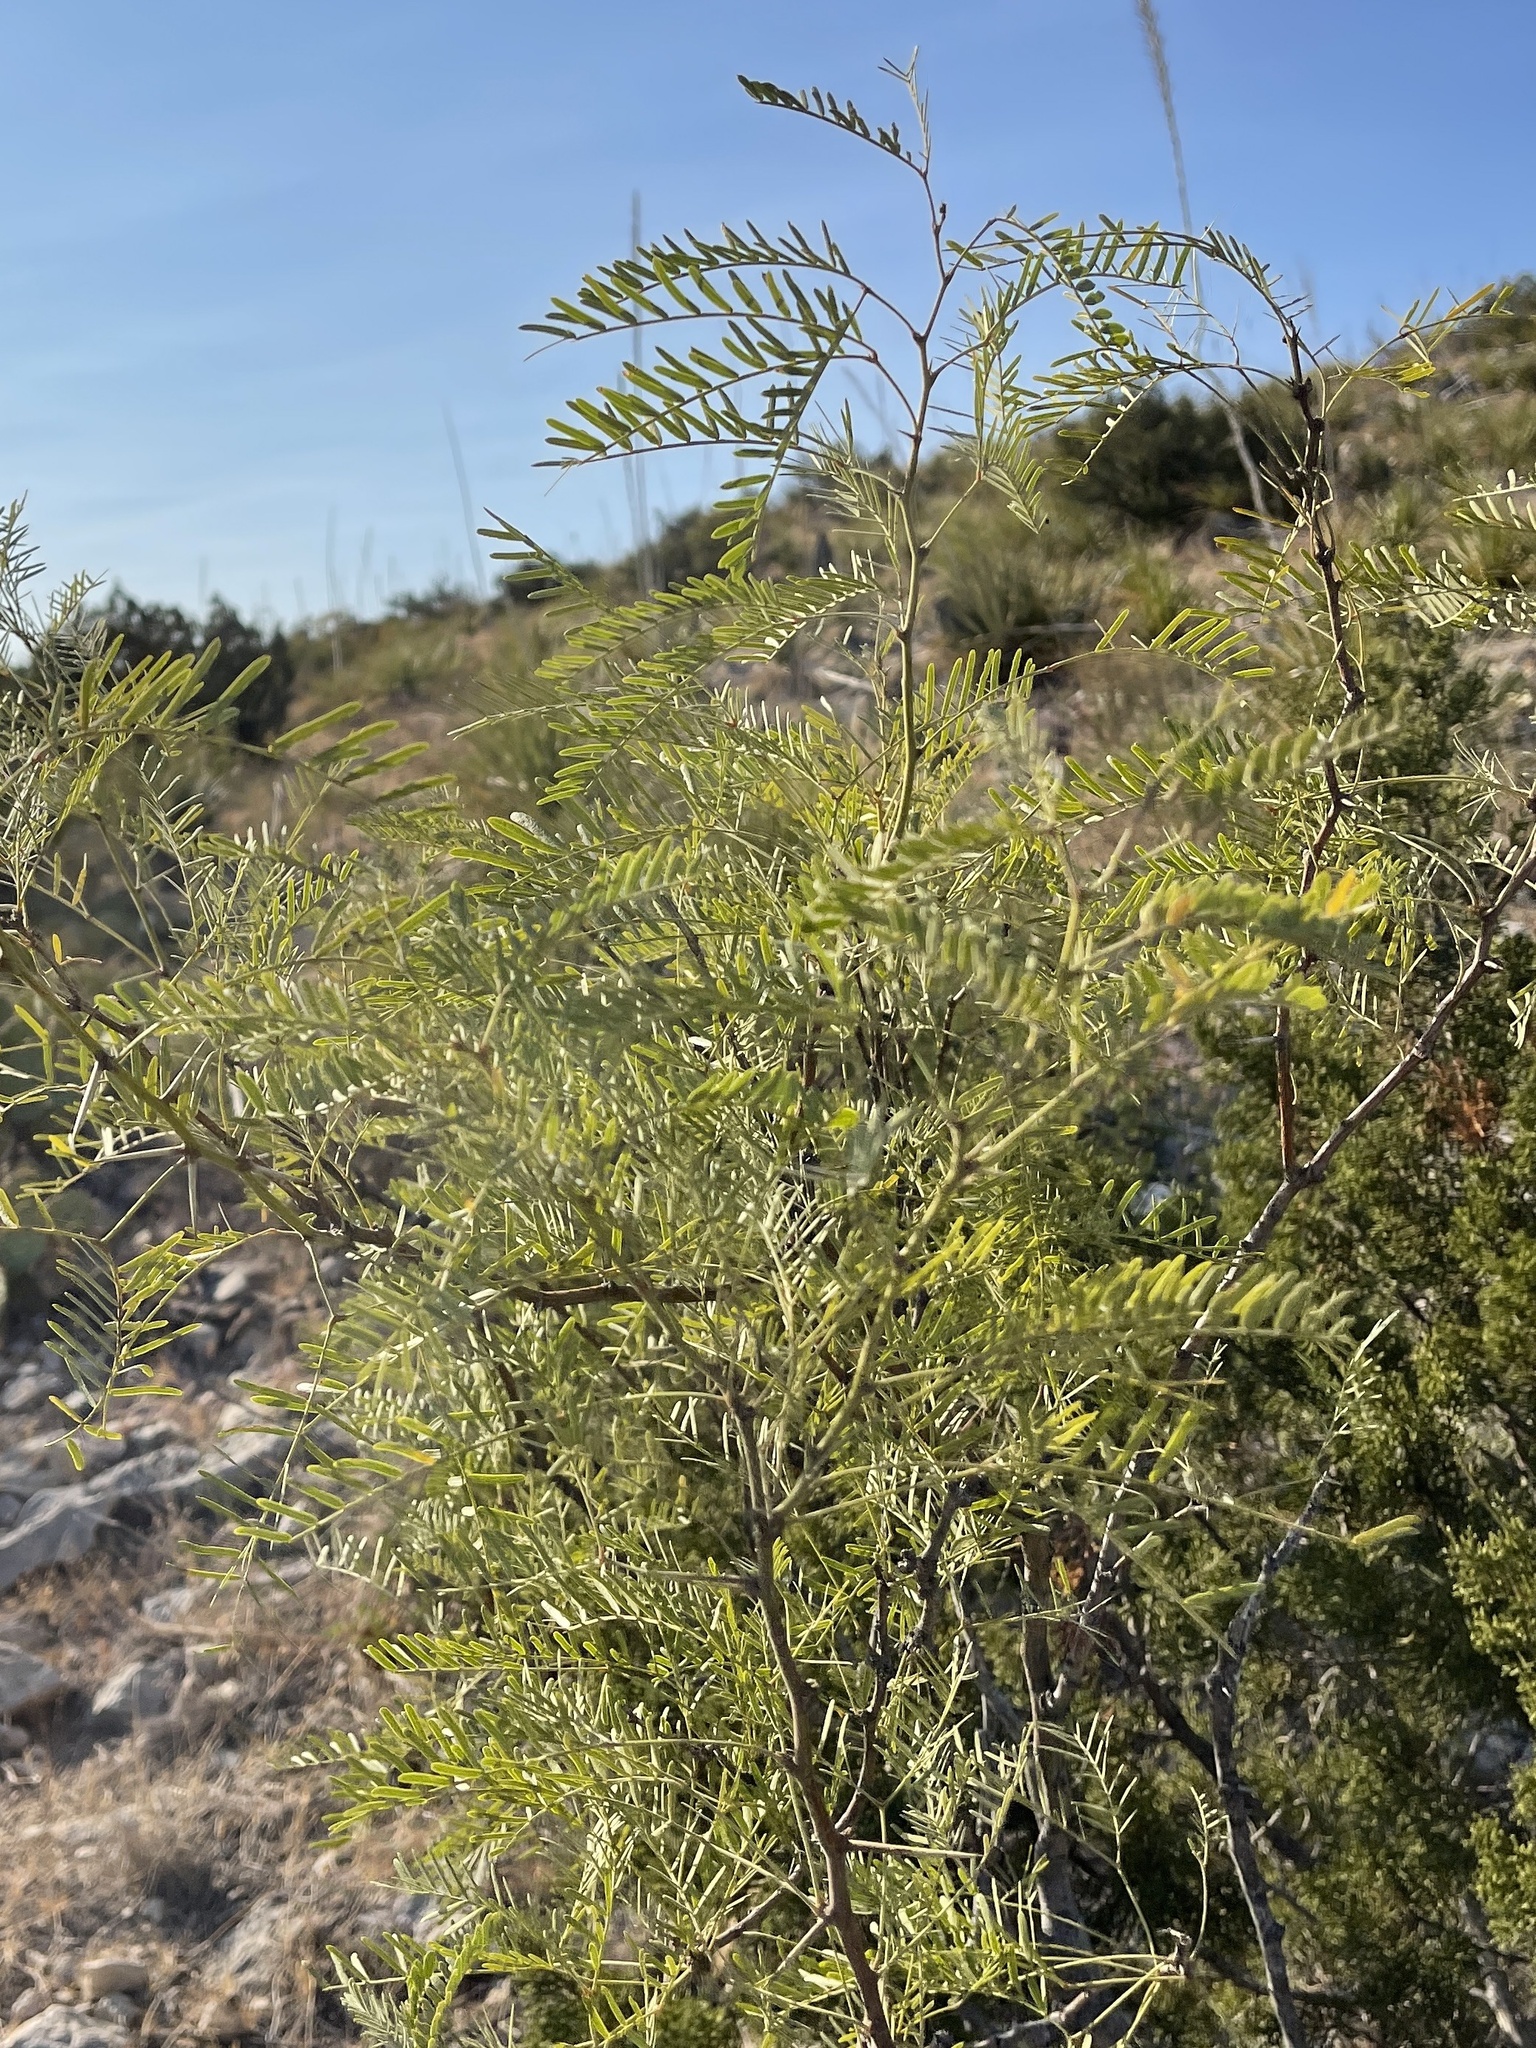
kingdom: Plantae
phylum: Tracheophyta
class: Magnoliopsida
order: Fabales
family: Fabaceae
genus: Prosopis
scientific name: Prosopis glandulosa
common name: Honey mesquite
